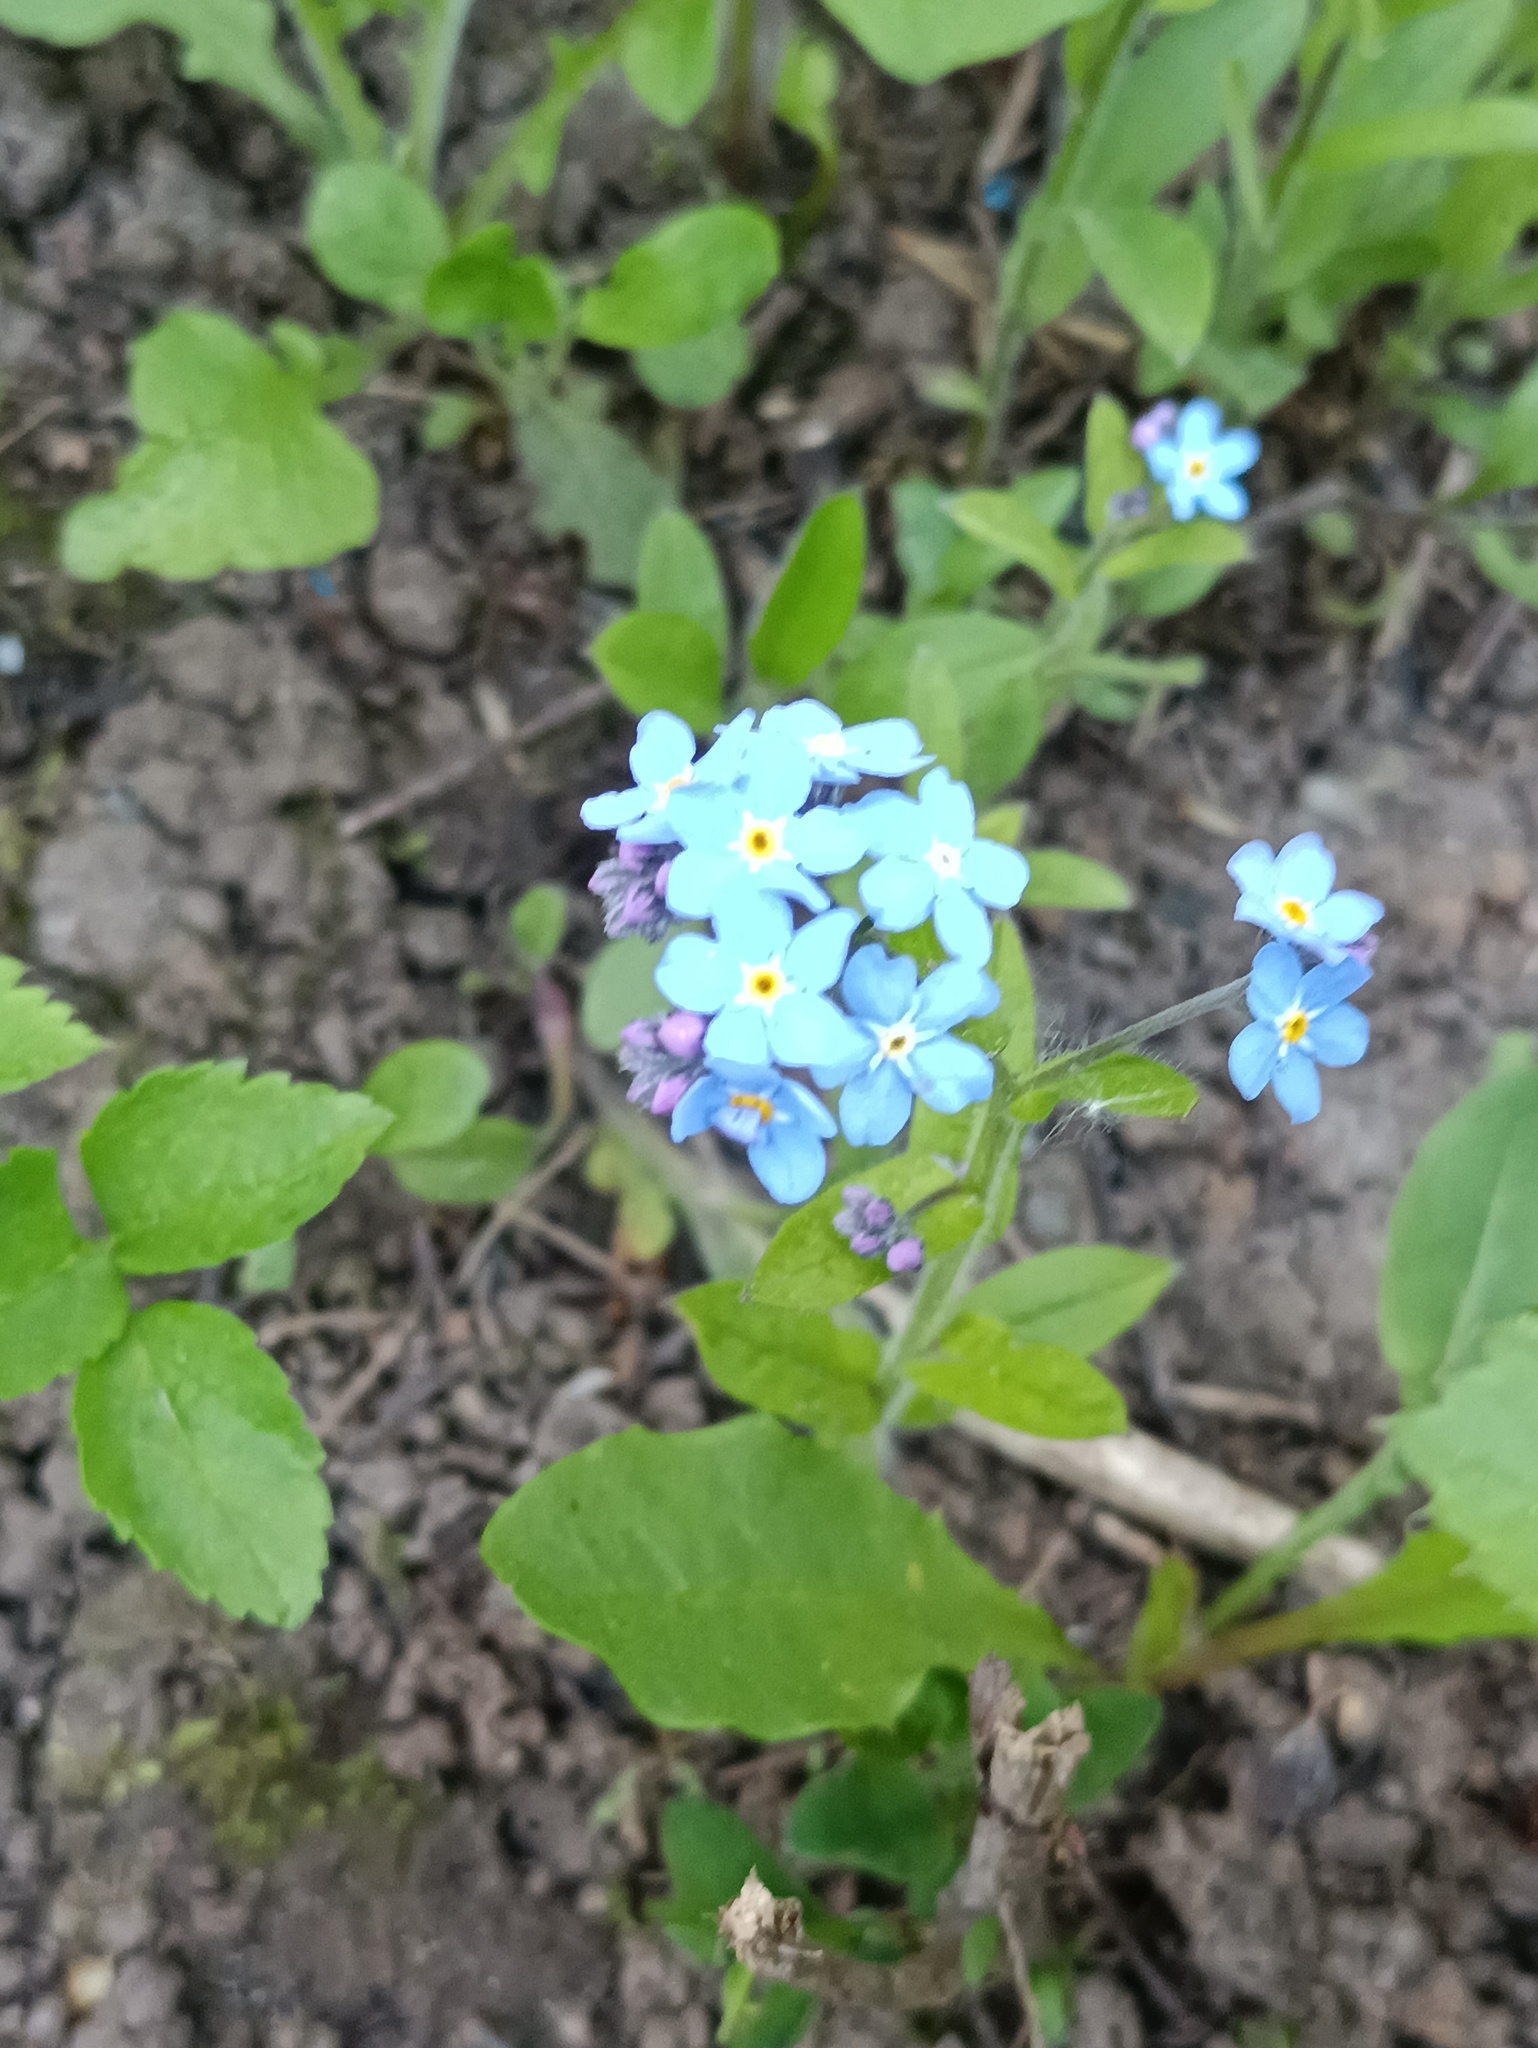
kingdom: Plantae
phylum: Tracheophyta
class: Magnoliopsida
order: Boraginales
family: Boraginaceae
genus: Myosotis
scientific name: Myosotis sylvatica
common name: Wood forget-me-not
